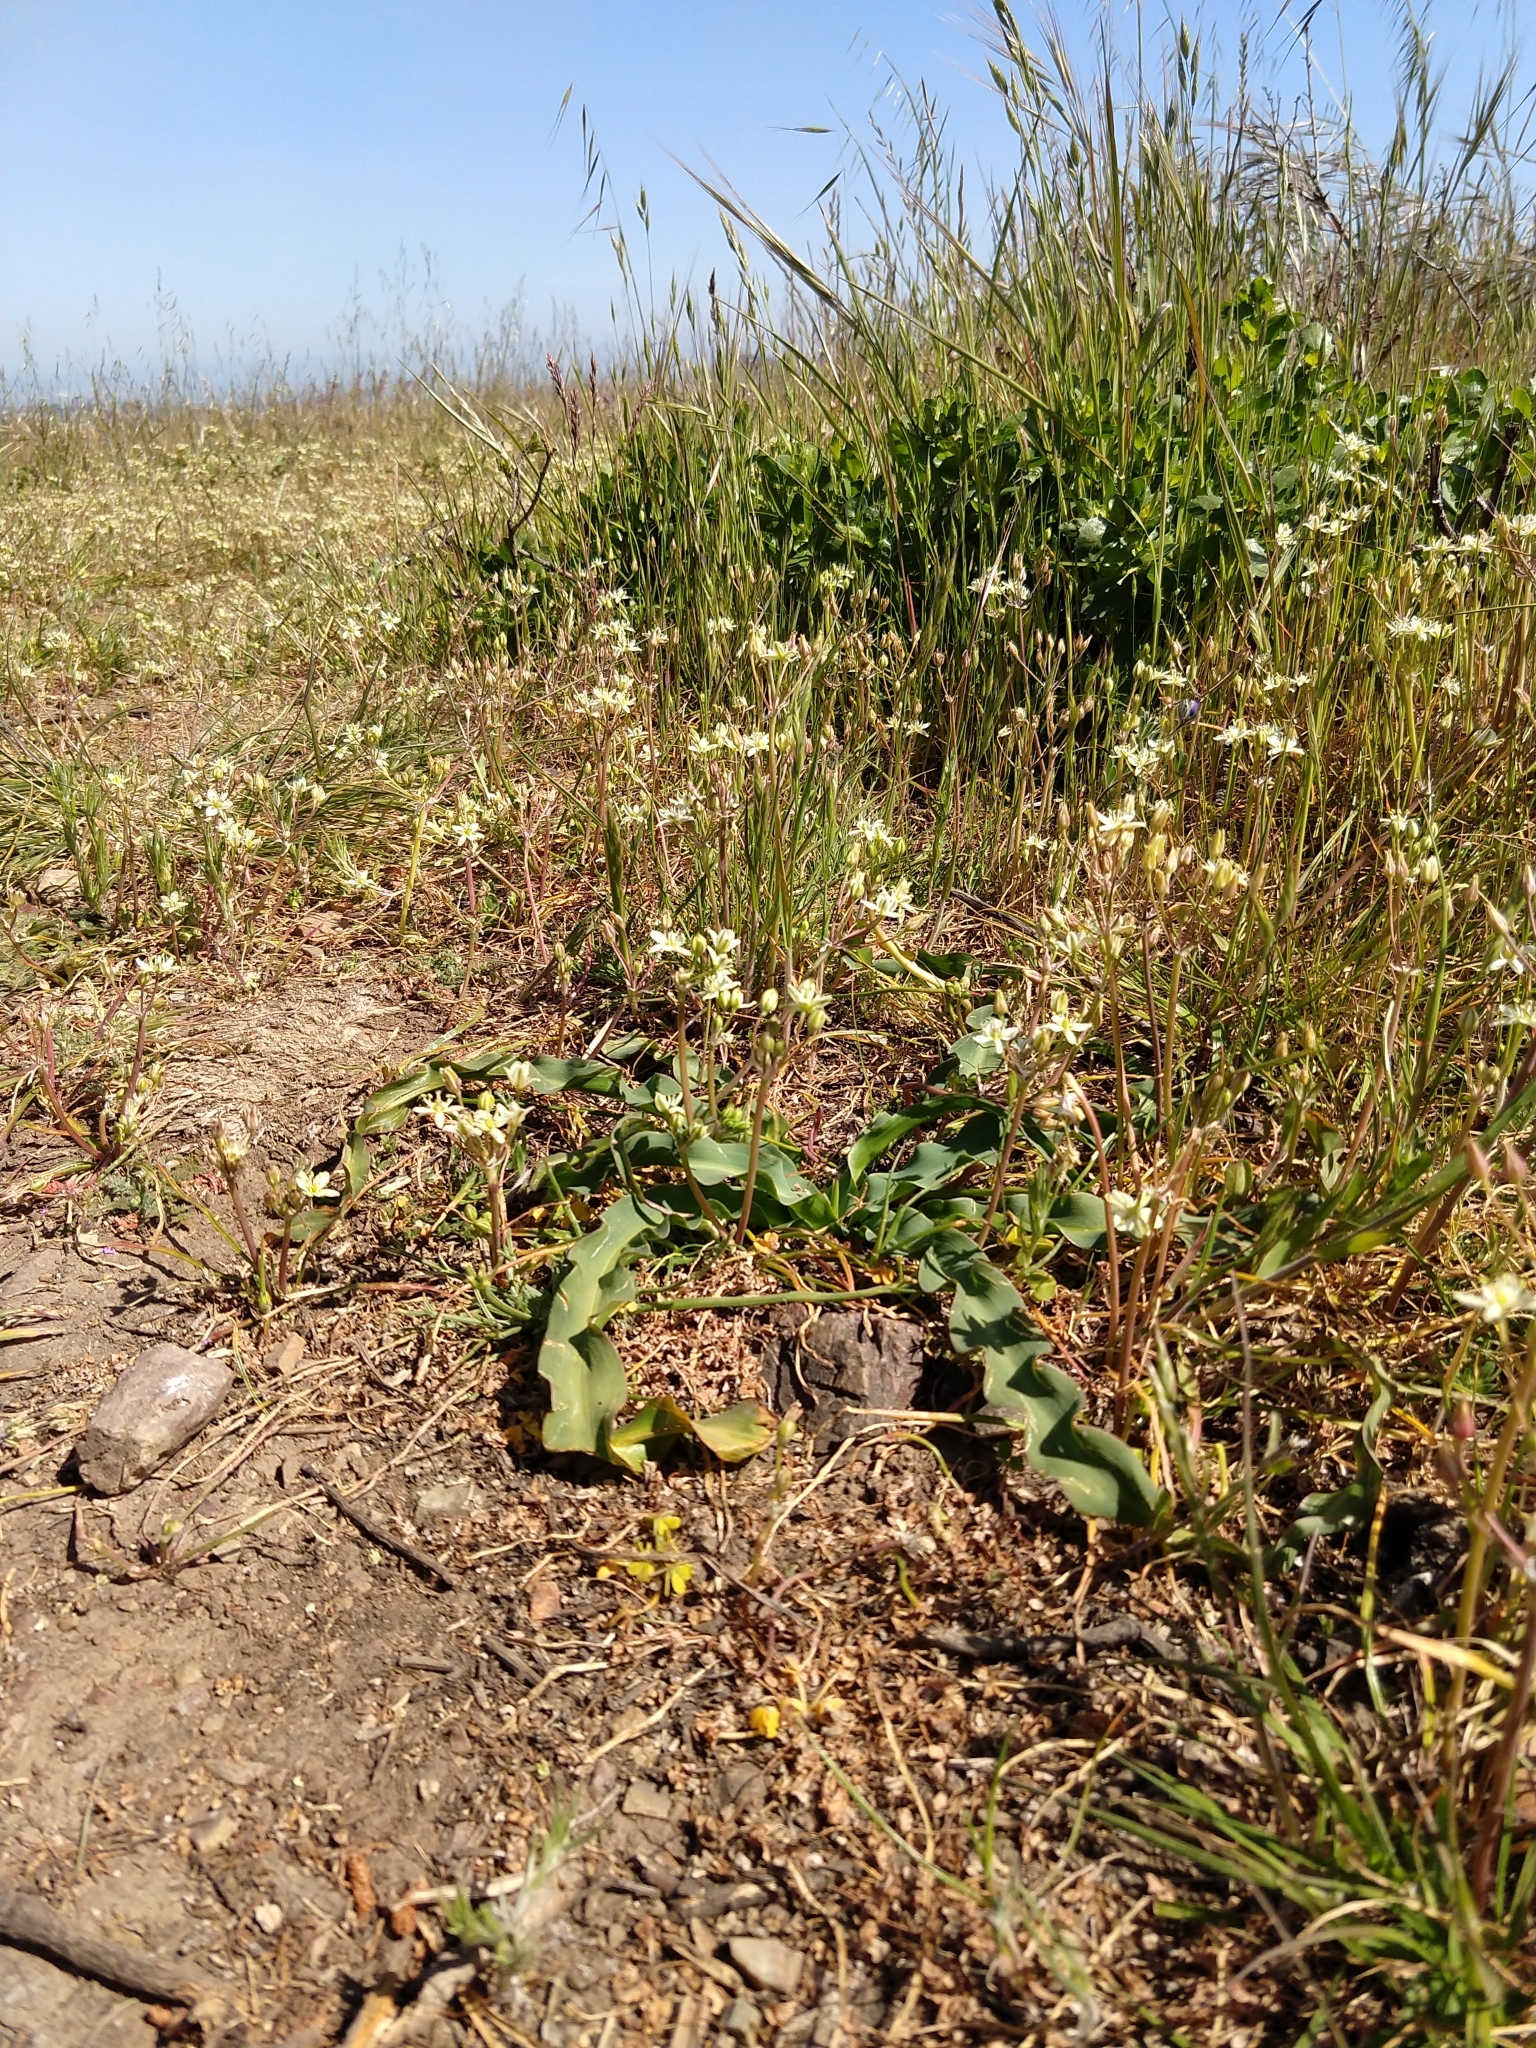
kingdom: Plantae
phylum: Tracheophyta
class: Liliopsida
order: Asparagales
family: Asparagaceae
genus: Muilla
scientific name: Muilla maritima
